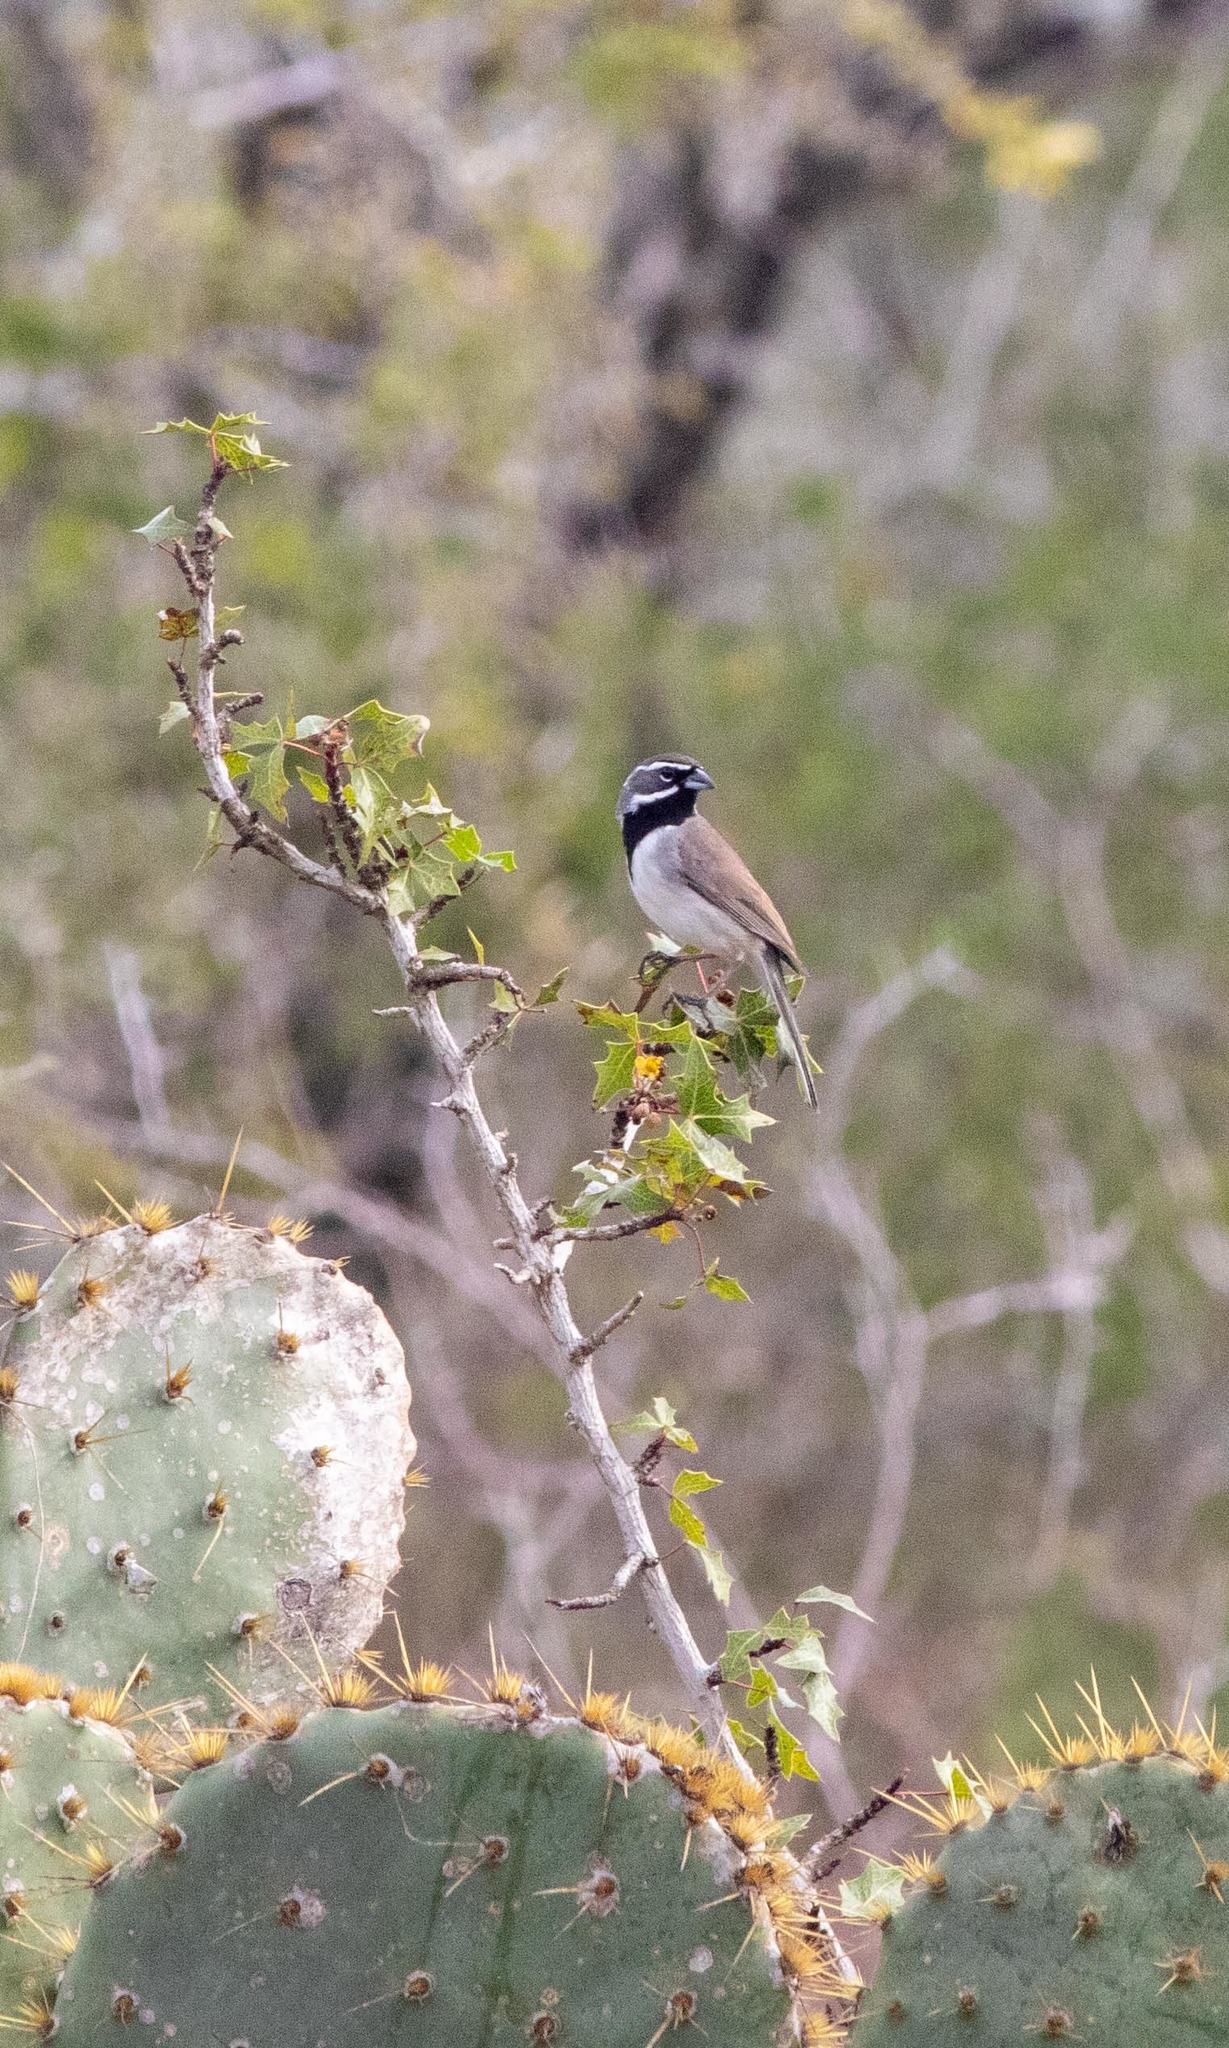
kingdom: Animalia
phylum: Chordata
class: Aves
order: Passeriformes
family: Passerellidae
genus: Amphispiza
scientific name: Amphispiza bilineata
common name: Black-throated sparrow
